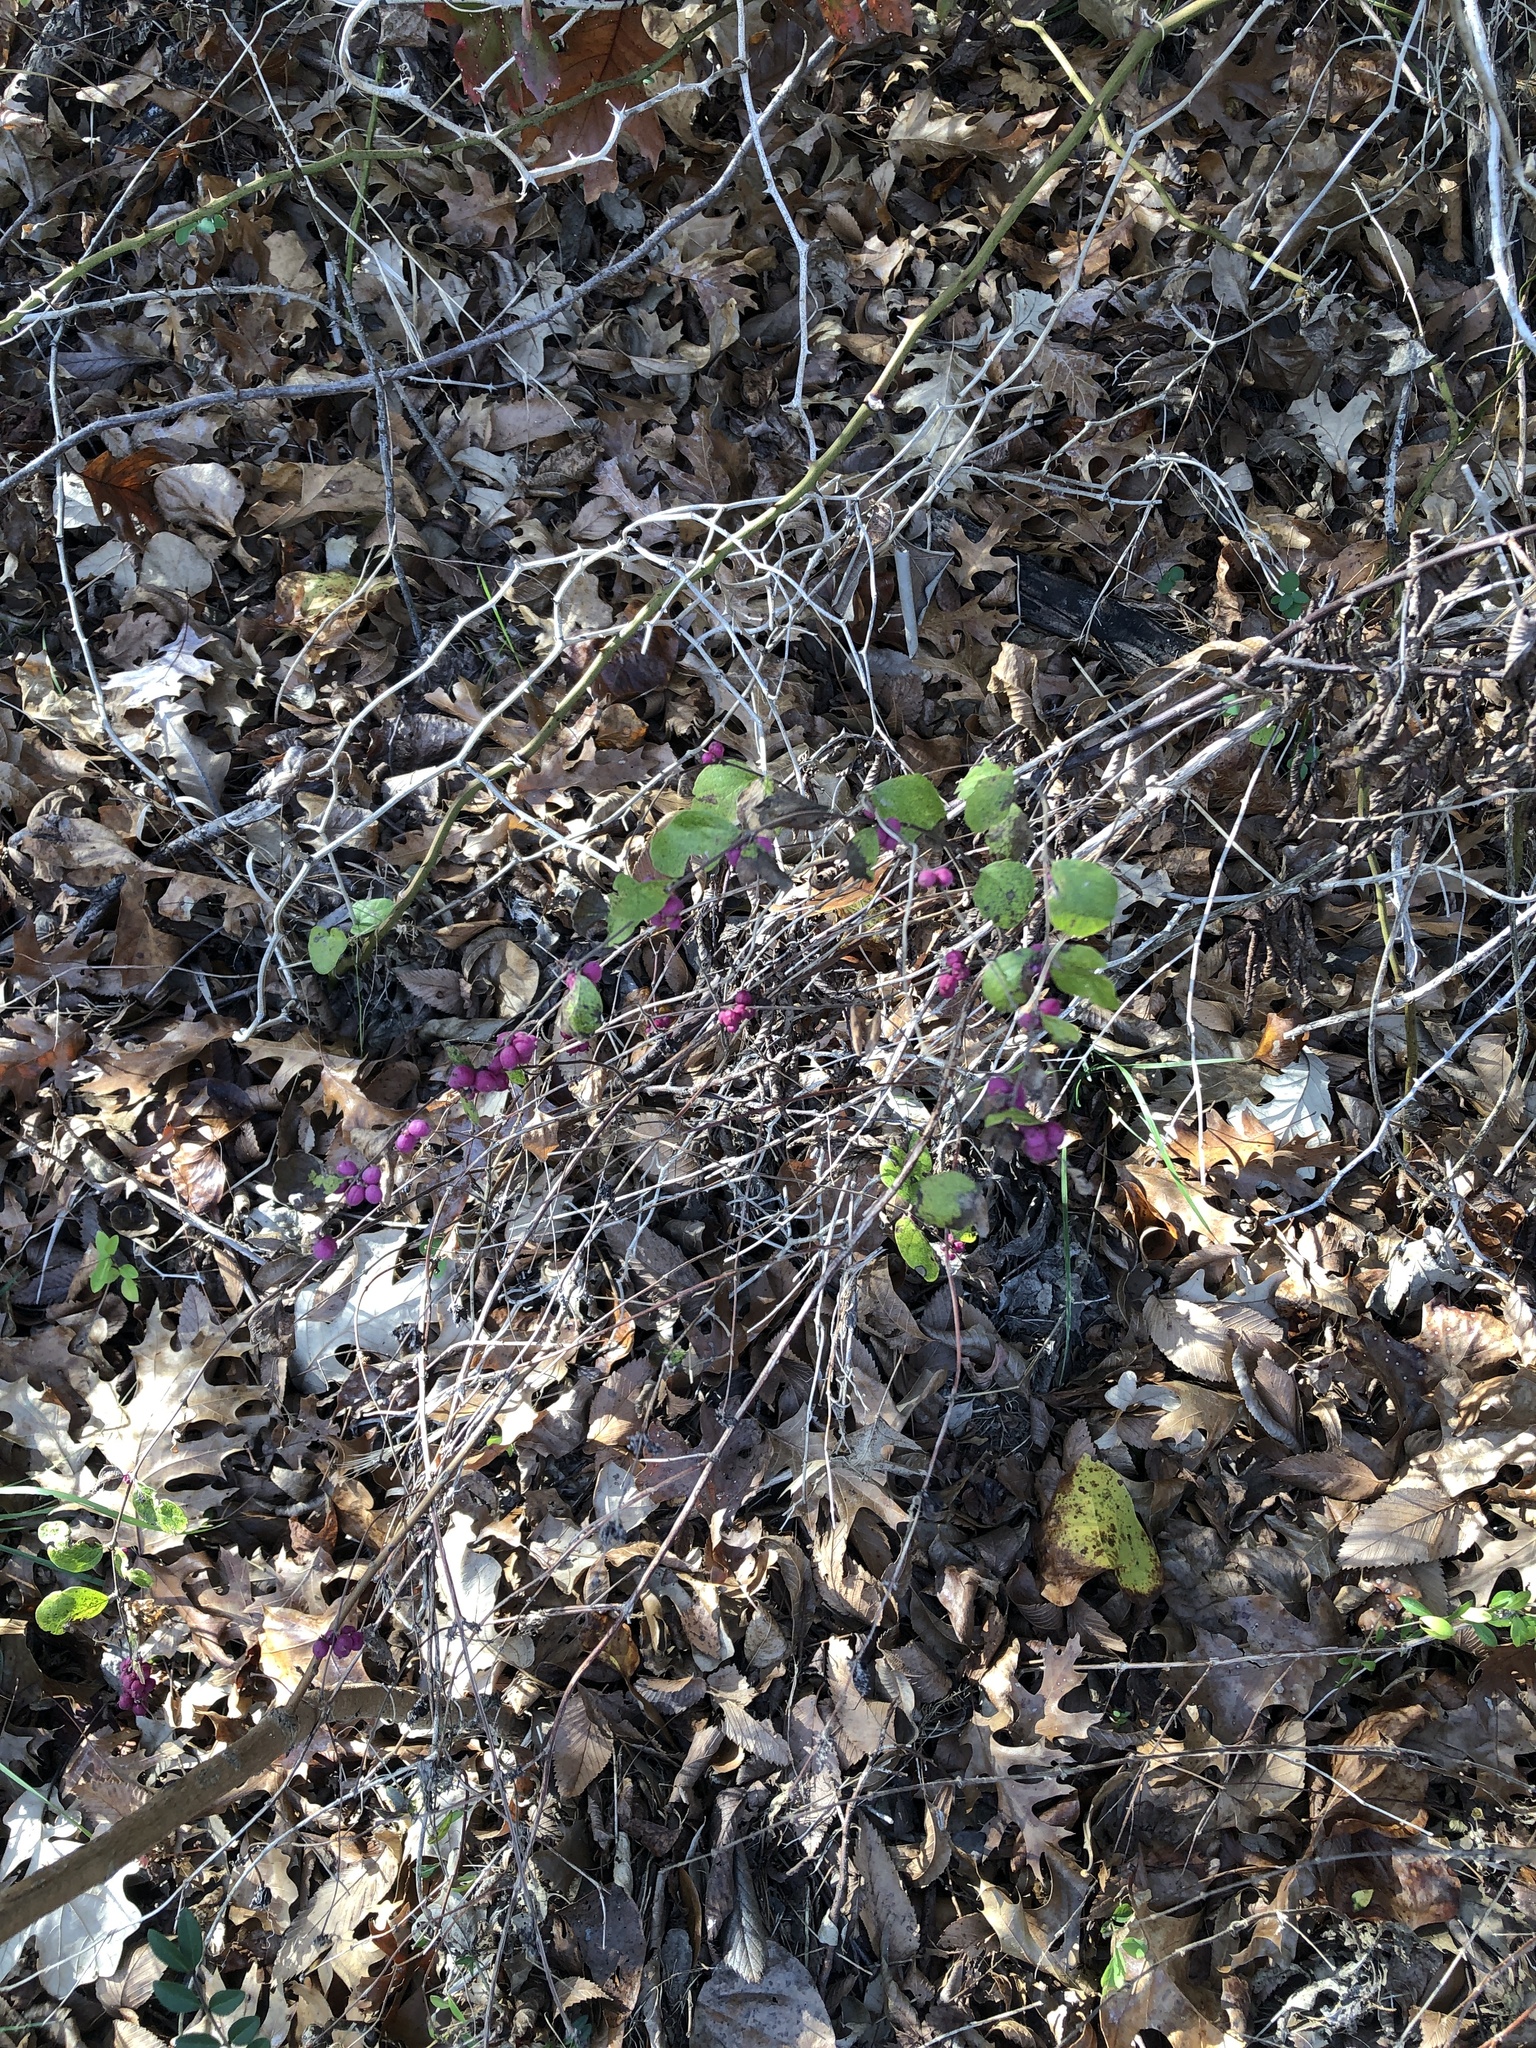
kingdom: Plantae
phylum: Tracheophyta
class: Magnoliopsida
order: Dipsacales
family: Caprifoliaceae
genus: Symphoricarpos
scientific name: Symphoricarpos orbiculatus
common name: Coralberry
